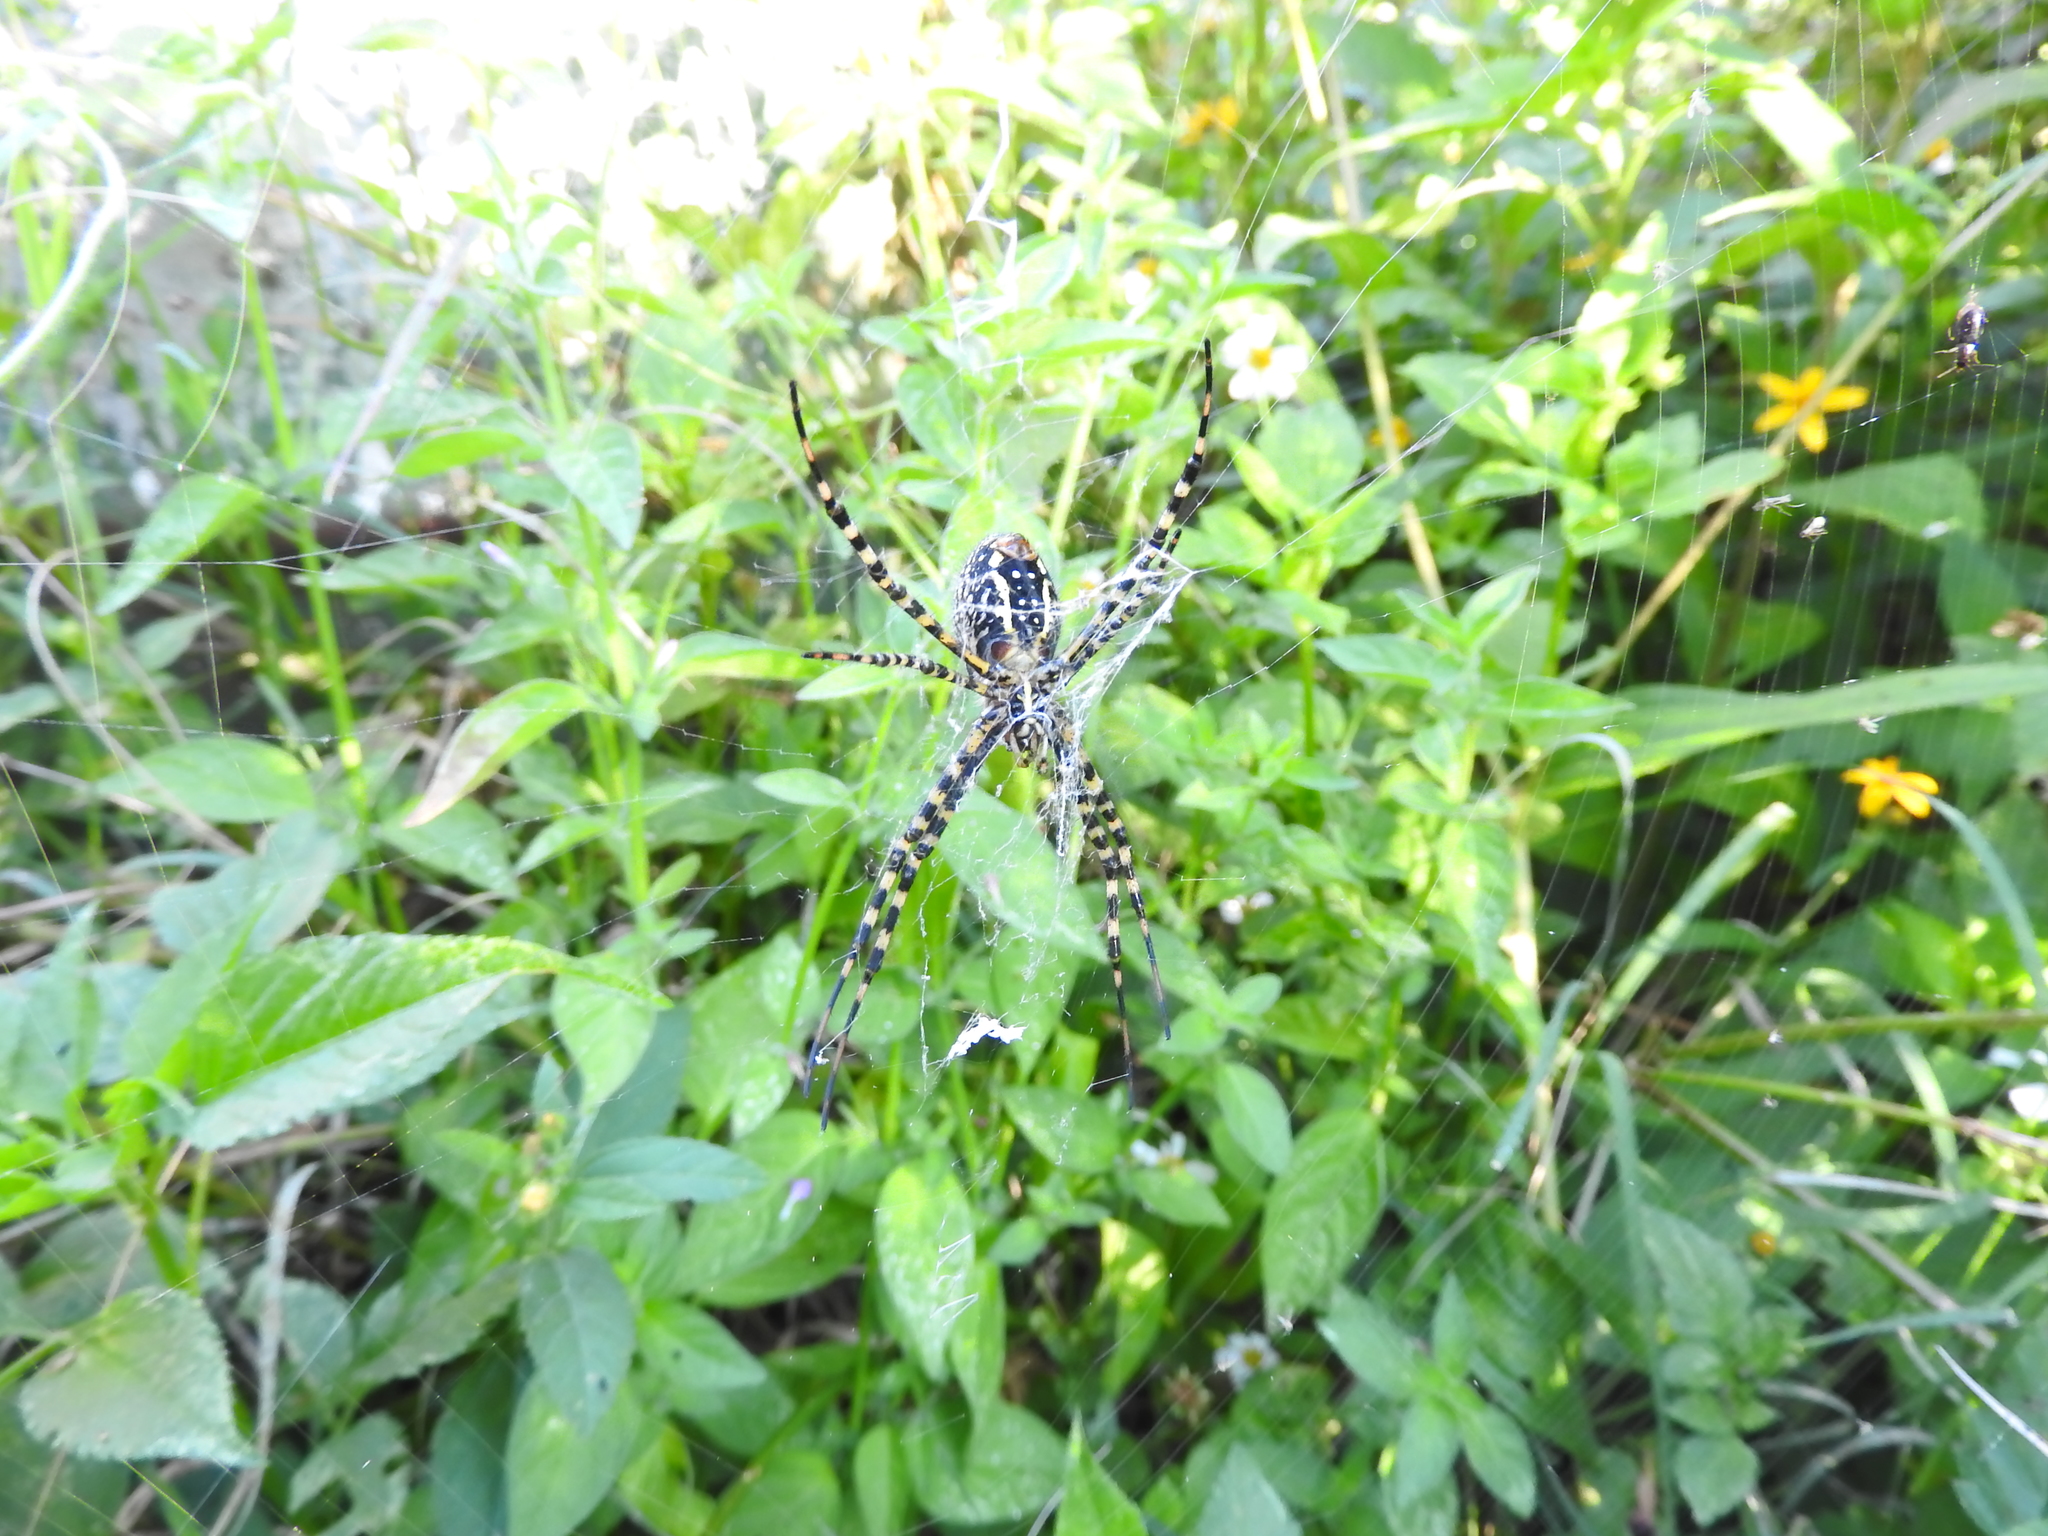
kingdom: Animalia
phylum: Arthropoda
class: Arachnida
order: Araneae
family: Araneidae
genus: Argiope
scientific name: Argiope trifasciata
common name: Banded garden spider
